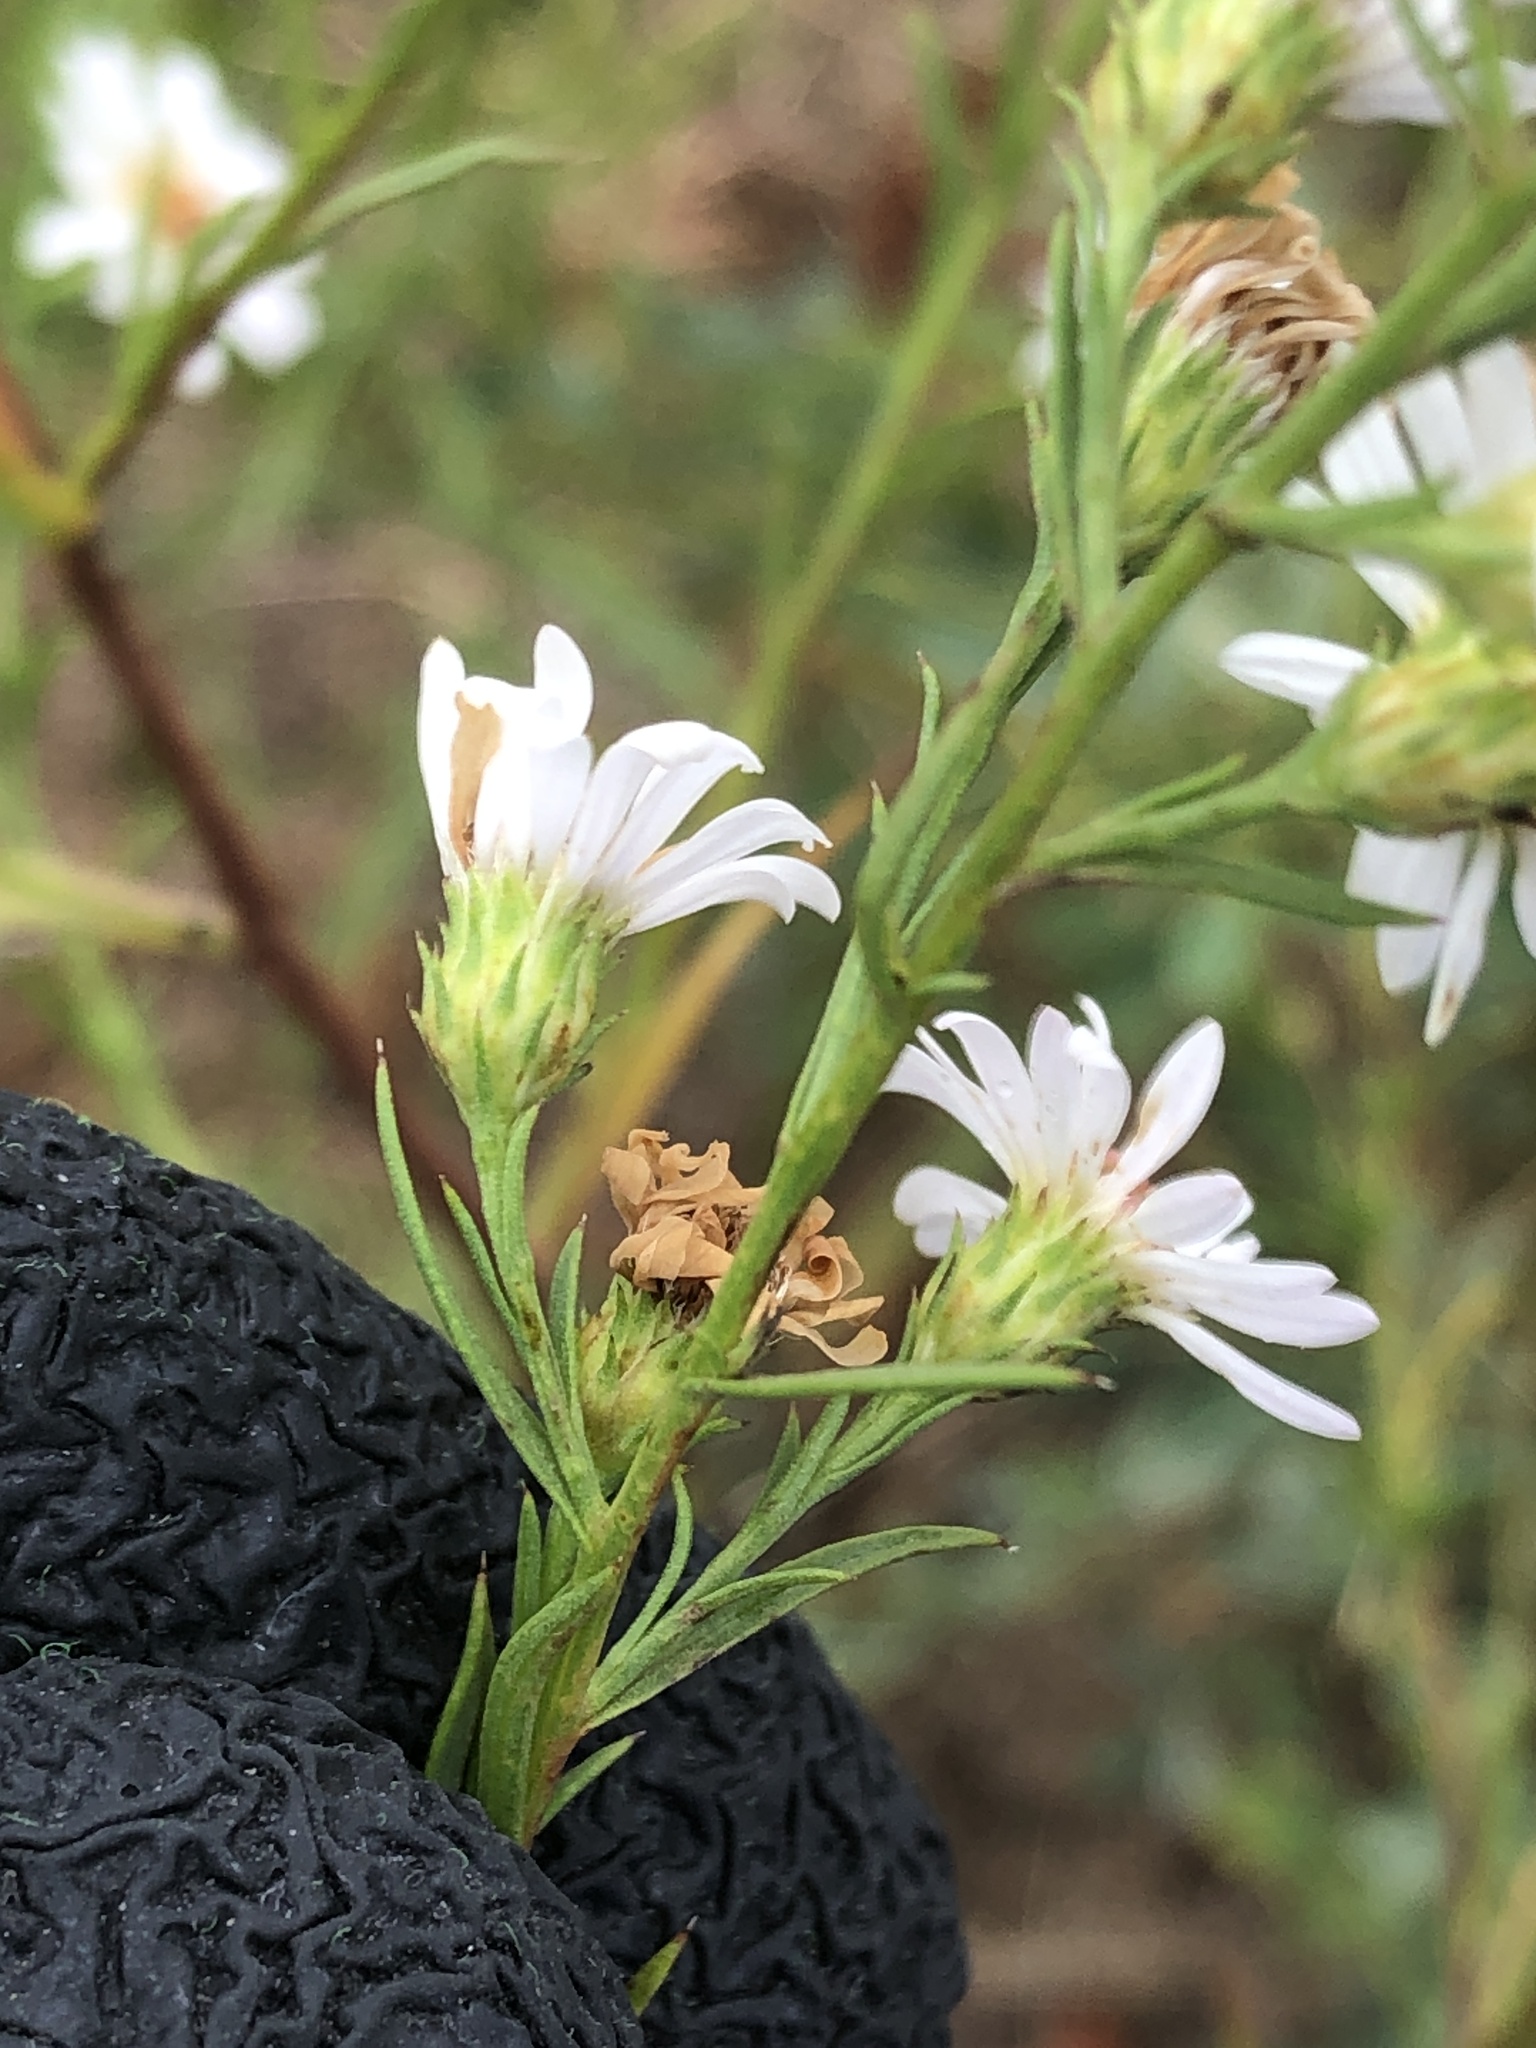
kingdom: Plantae
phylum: Tracheophyta
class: Magnoliopsida
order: Asterales
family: Asteraceae
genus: Symphyotrichum
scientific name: Symphyotrichum pilosum
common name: Awl aster
